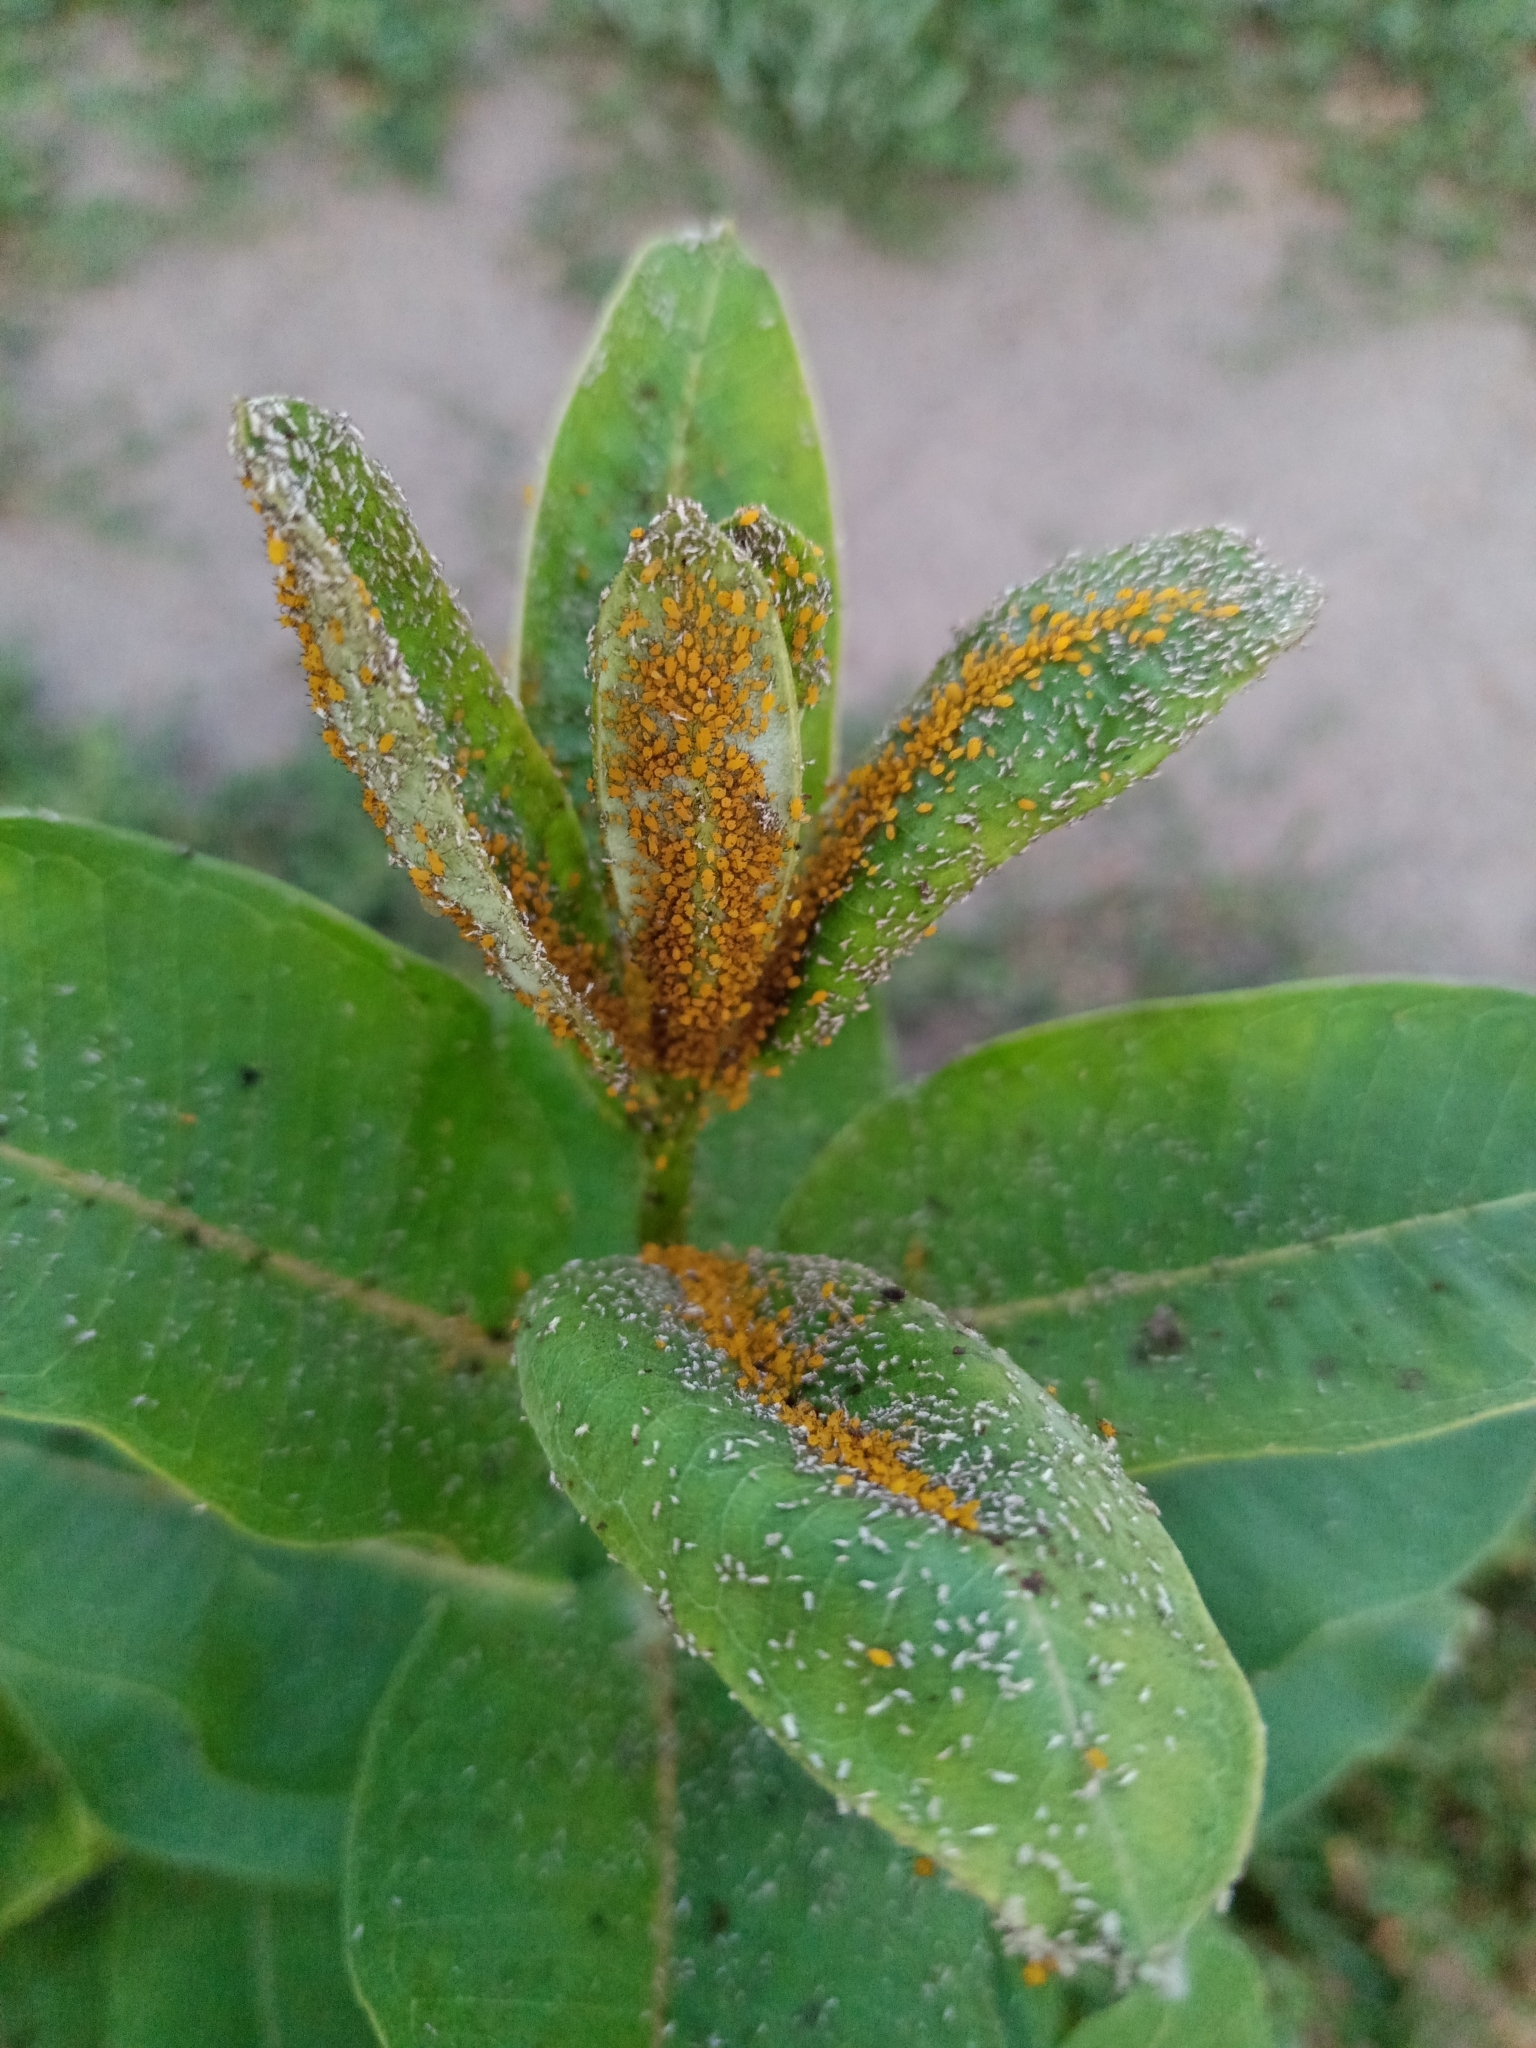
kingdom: Animalia
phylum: Arthropoda
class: Insecta
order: Hemiptera
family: Aphididae
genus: Aphis
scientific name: Aphis nerii
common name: Oleander aphid
